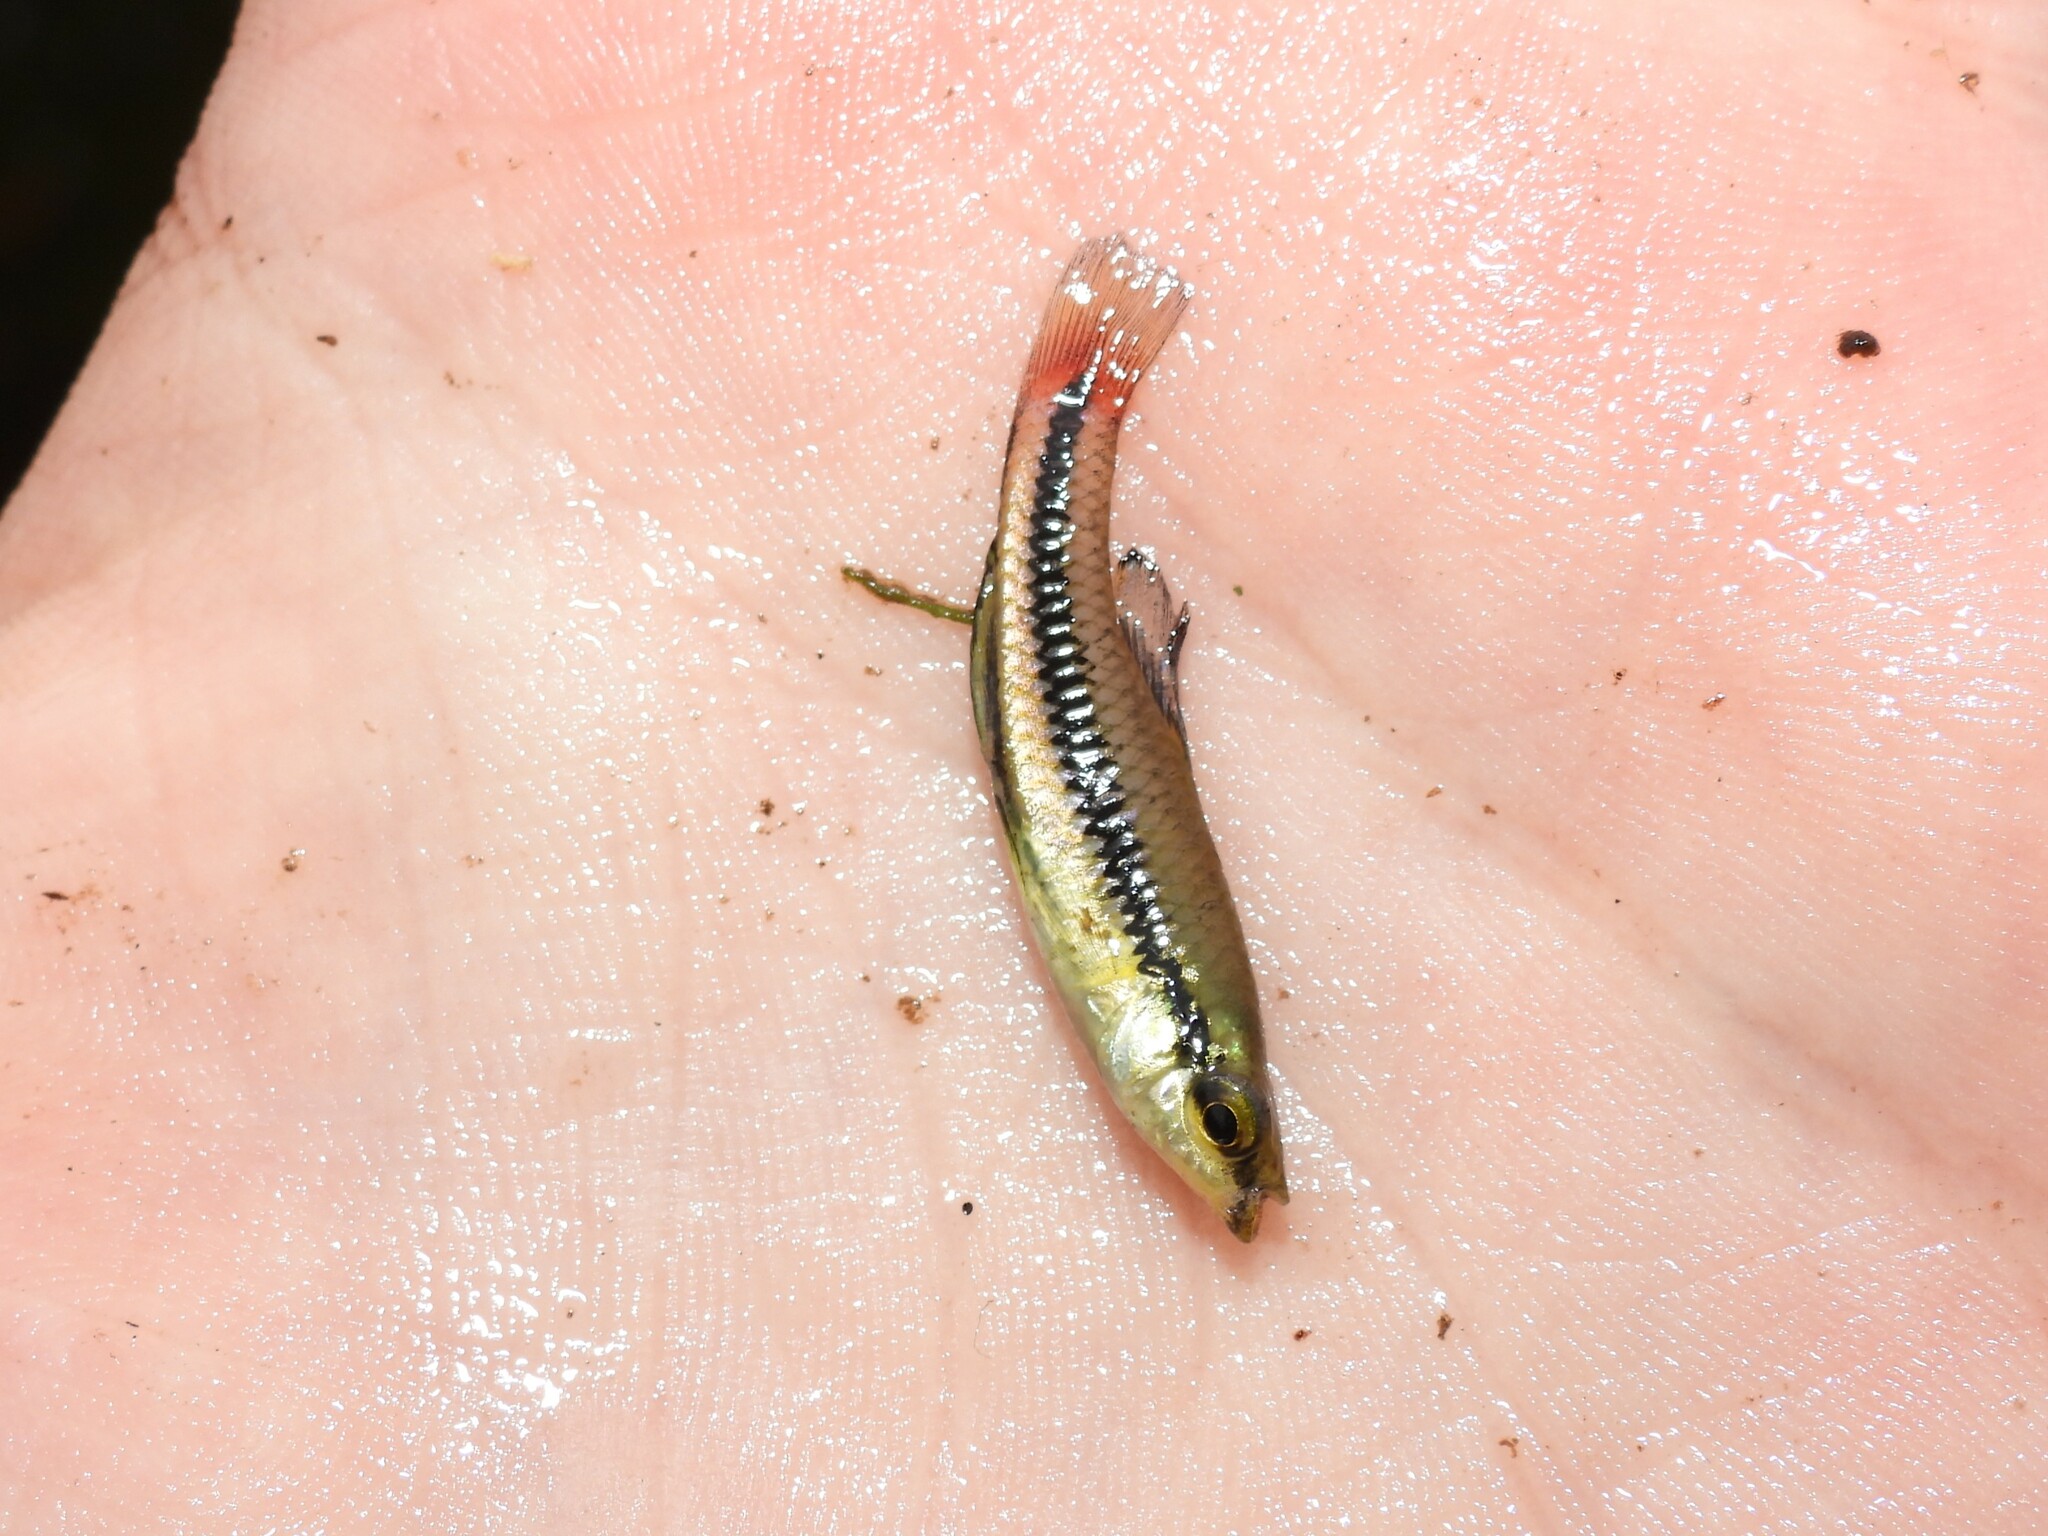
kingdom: Animalia
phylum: Chordata
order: Cyprinodontiformes
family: Fundulidae
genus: Lucania
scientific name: Lucania goodei
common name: Bluefin killifish
